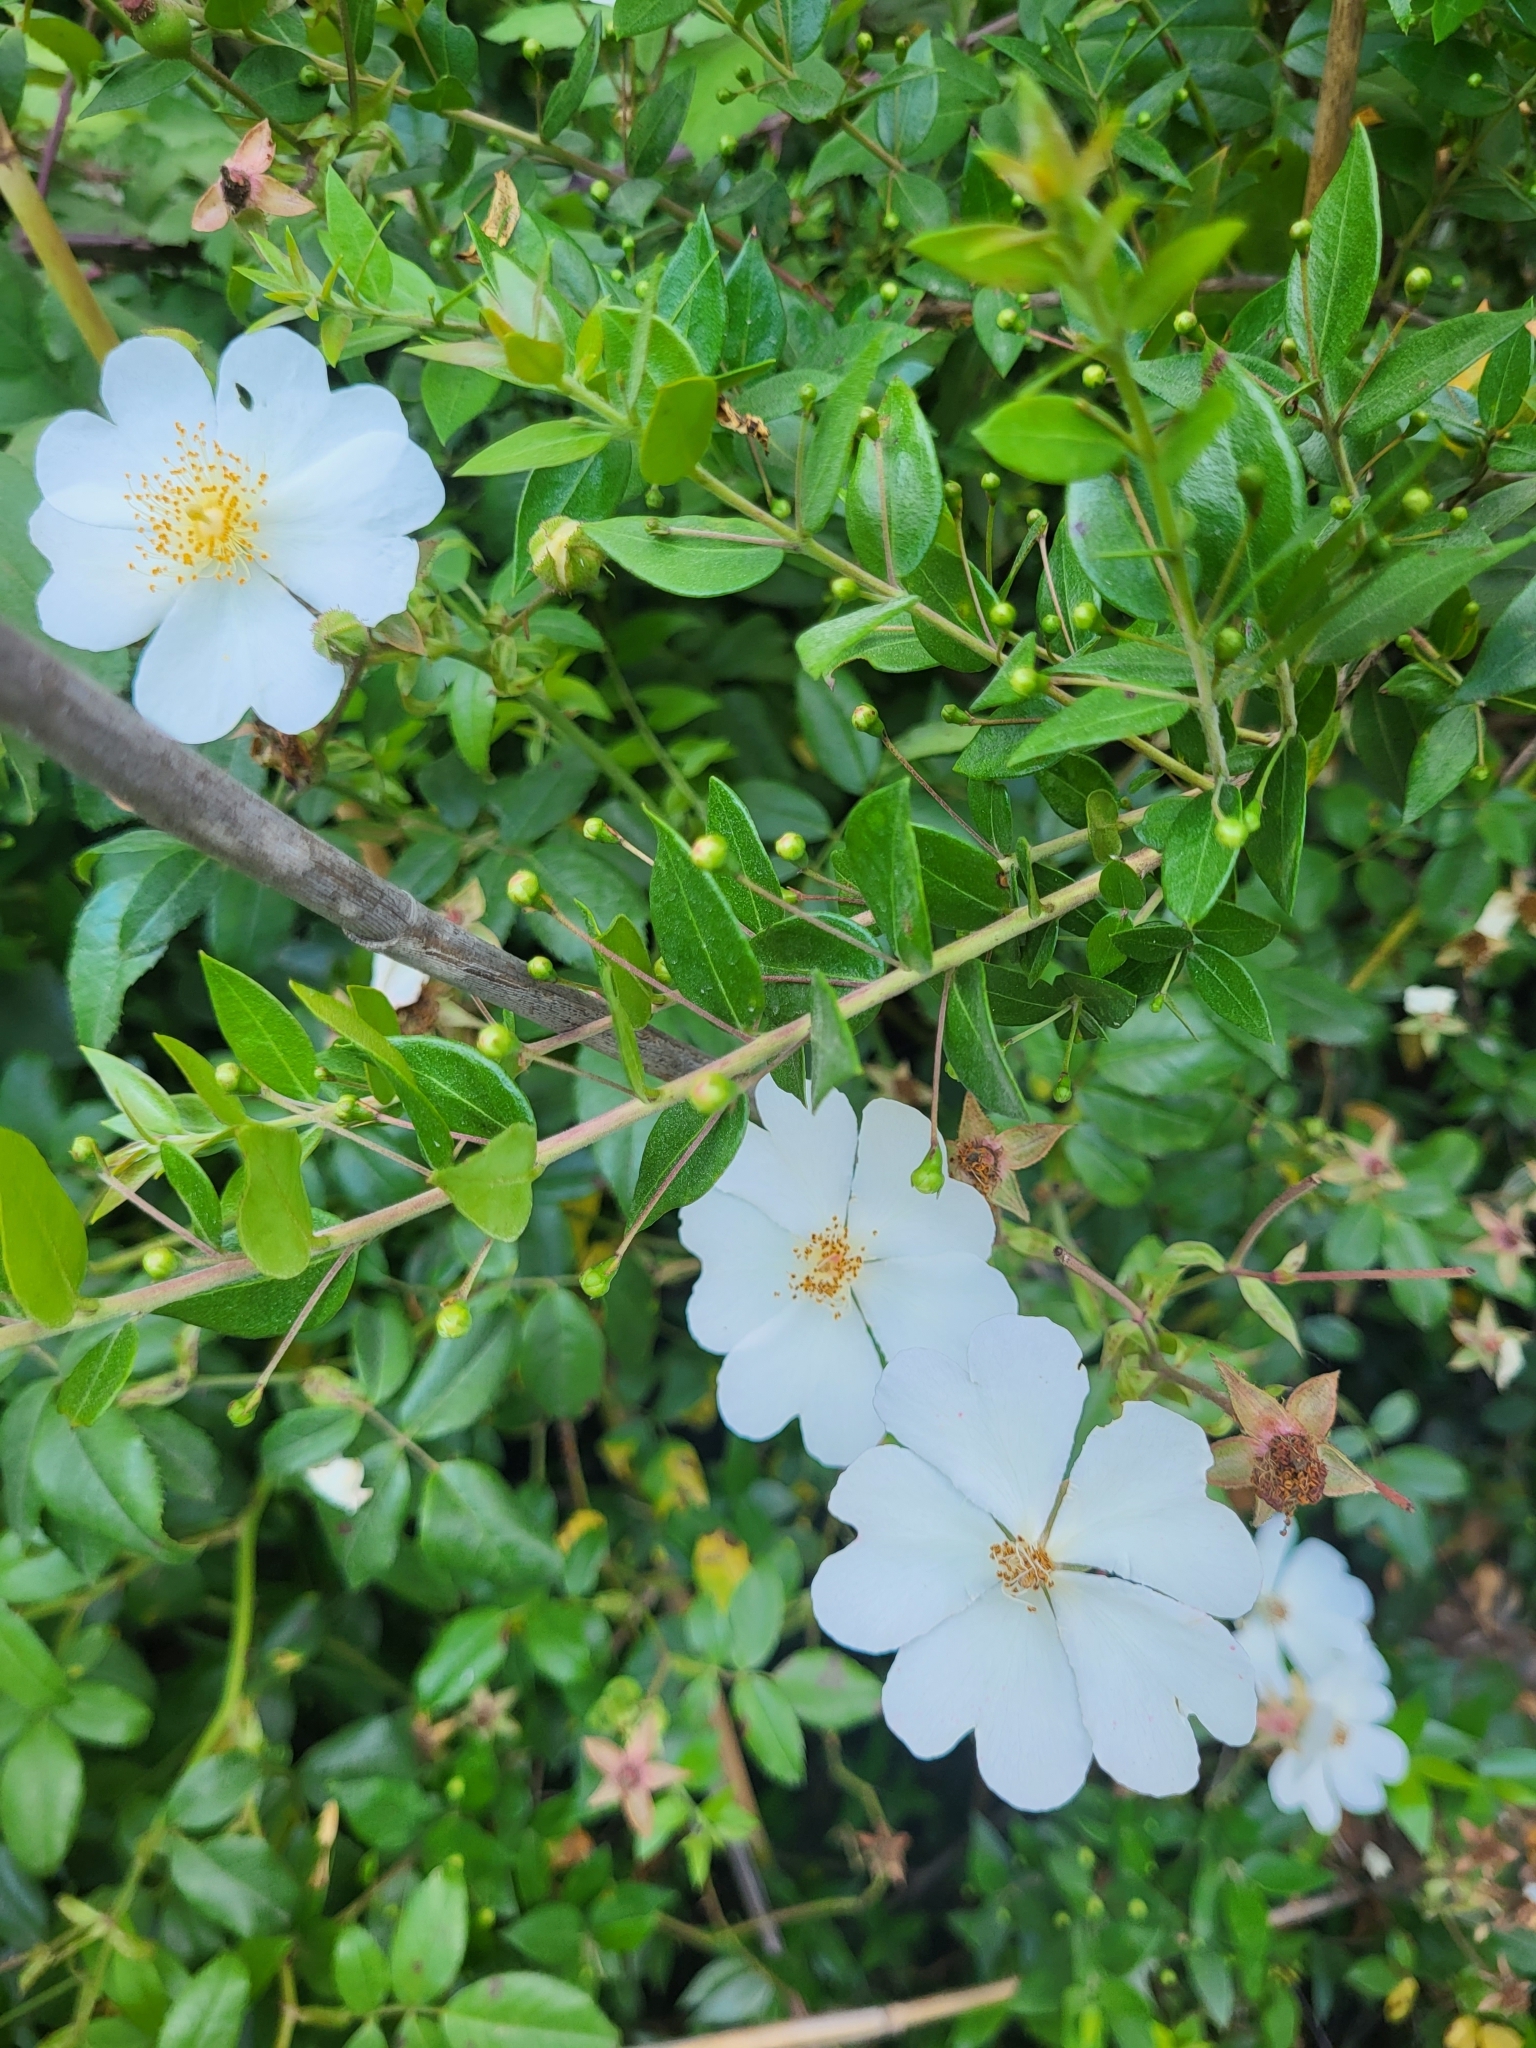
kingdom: Plantae
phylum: Tracheophyta
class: Magnoliopsida
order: Rosales
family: Rosaceae
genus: Rosa
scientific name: Rosa sempervirens
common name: Evergreen rose
